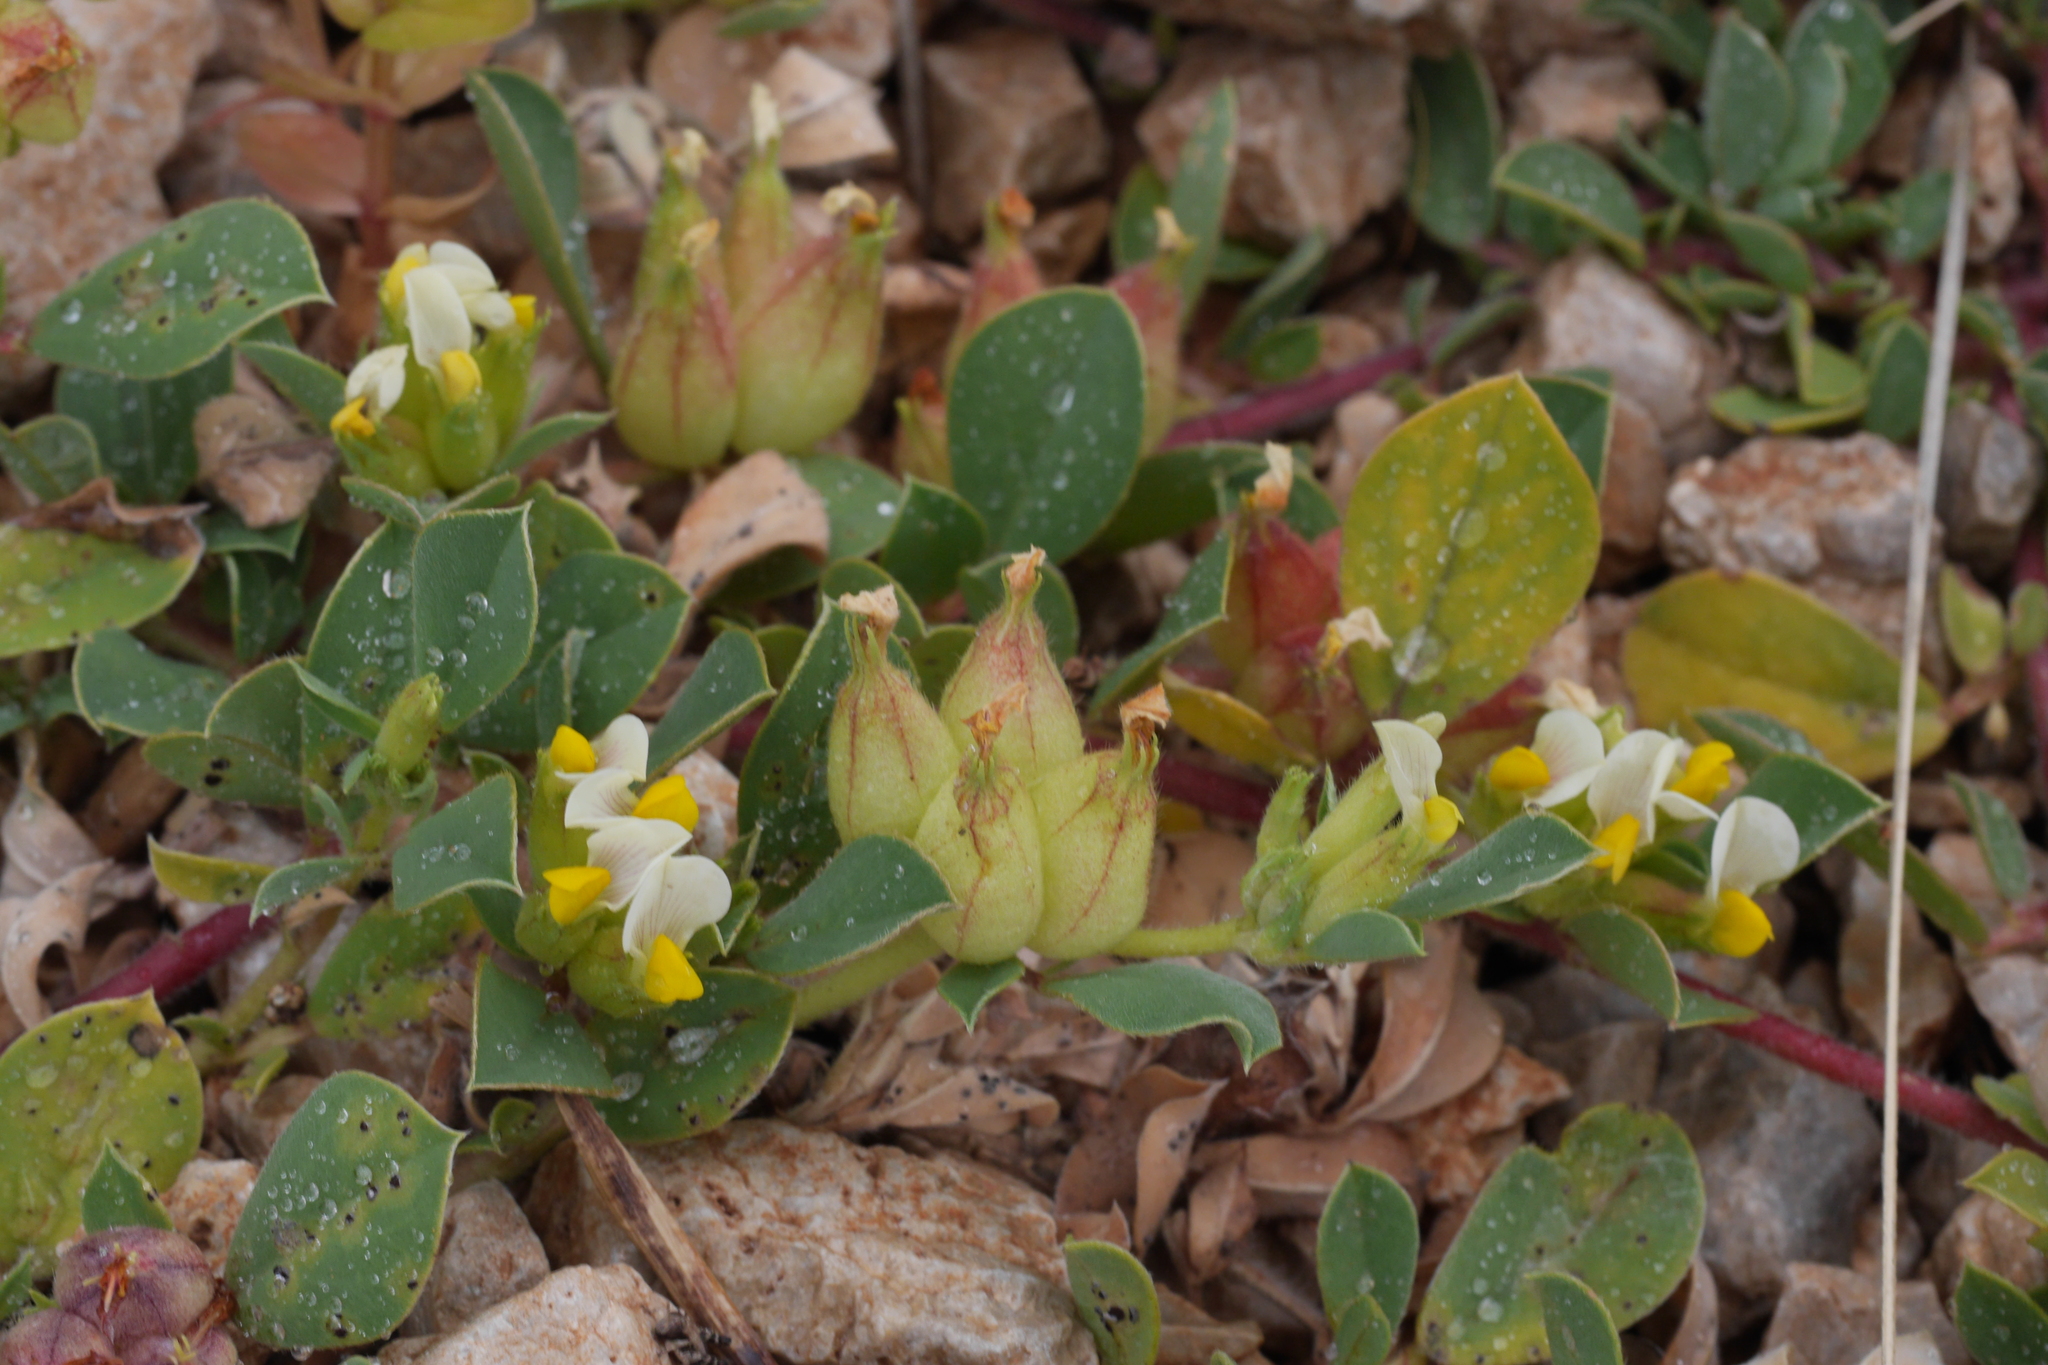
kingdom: Plantae
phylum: Tracheophyta
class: Magnoliopsida
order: Fabales
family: Fabaceae
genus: Tripodion
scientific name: Tripodion tetraphyllum
